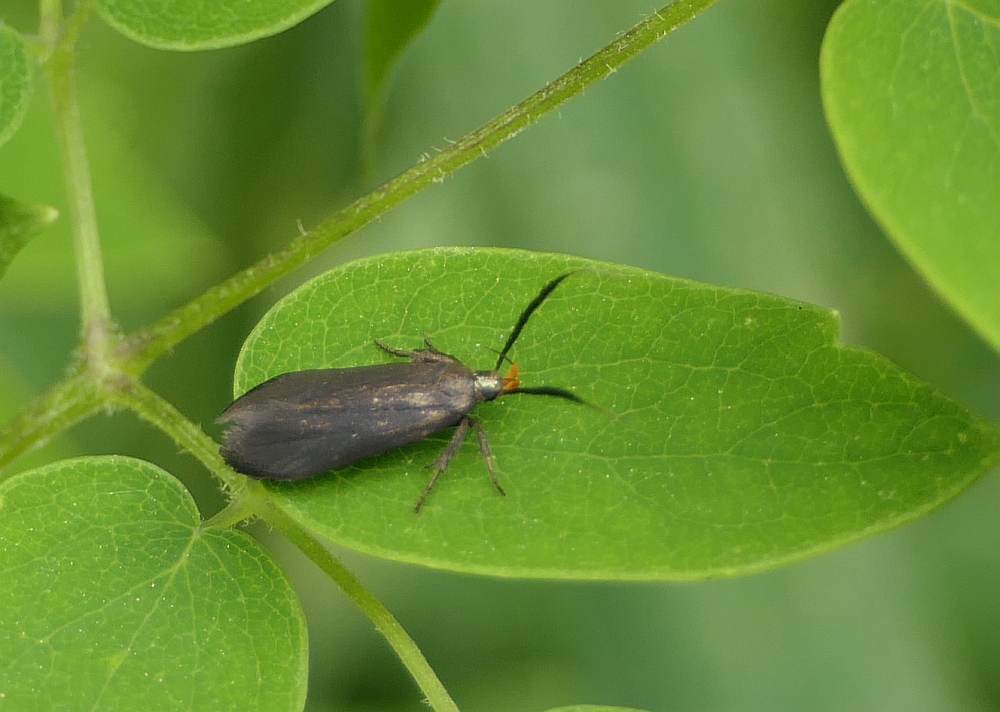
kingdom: Animalia
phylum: Arthropoda
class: Insecta
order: Lepidoptera
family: Gelechiidae
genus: Dichomeris
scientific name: Dichomeris nonstrigella
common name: Little devil moth
